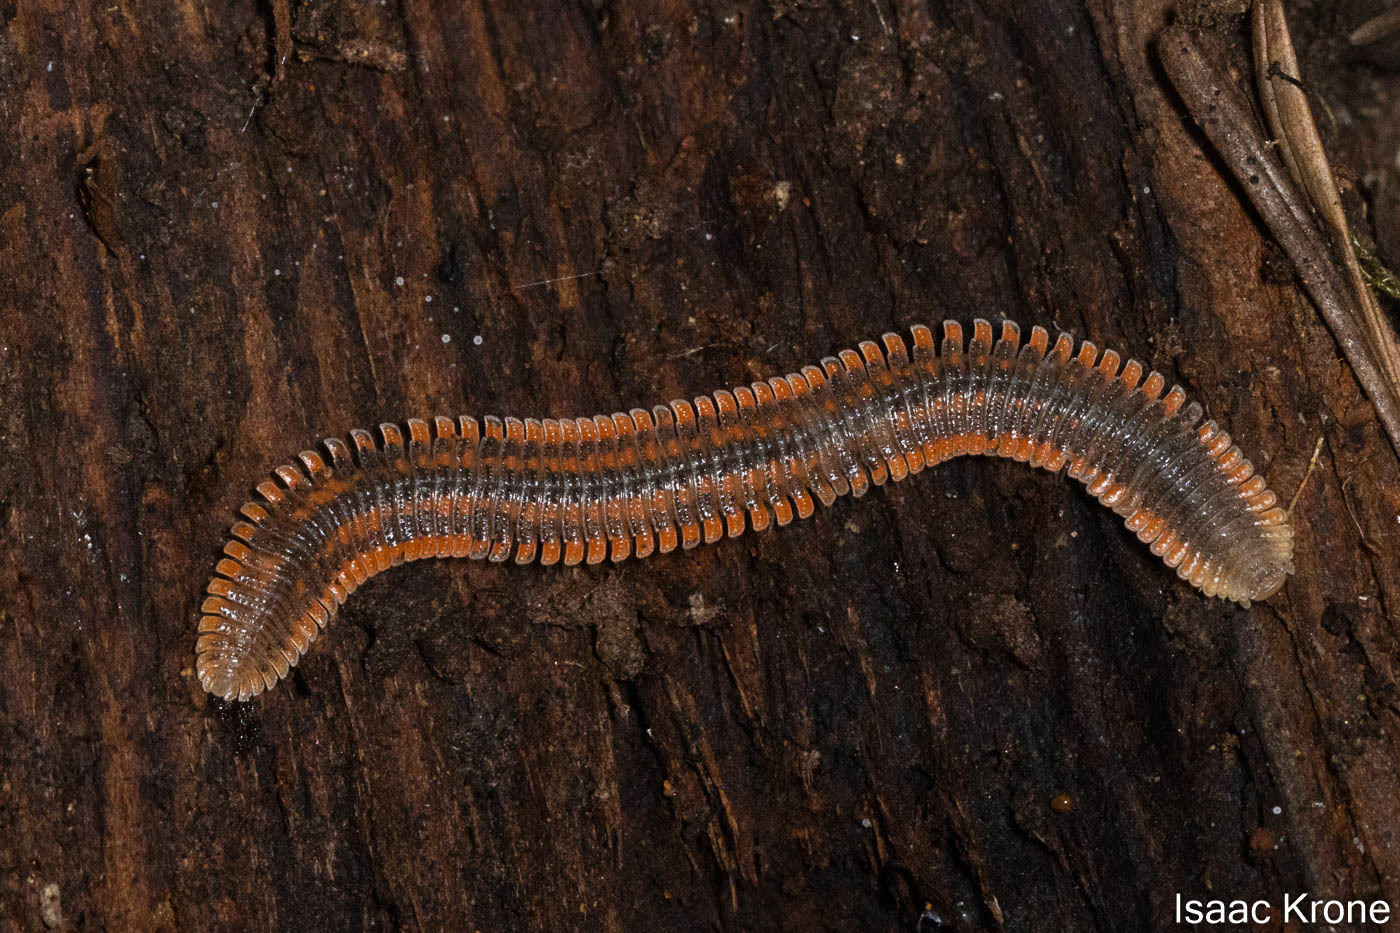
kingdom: Animalia
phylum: Arthropoda
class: Diplopoda
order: Platydesmida
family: Andrognathidae
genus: Brachycybe
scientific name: Brachycybe producta
